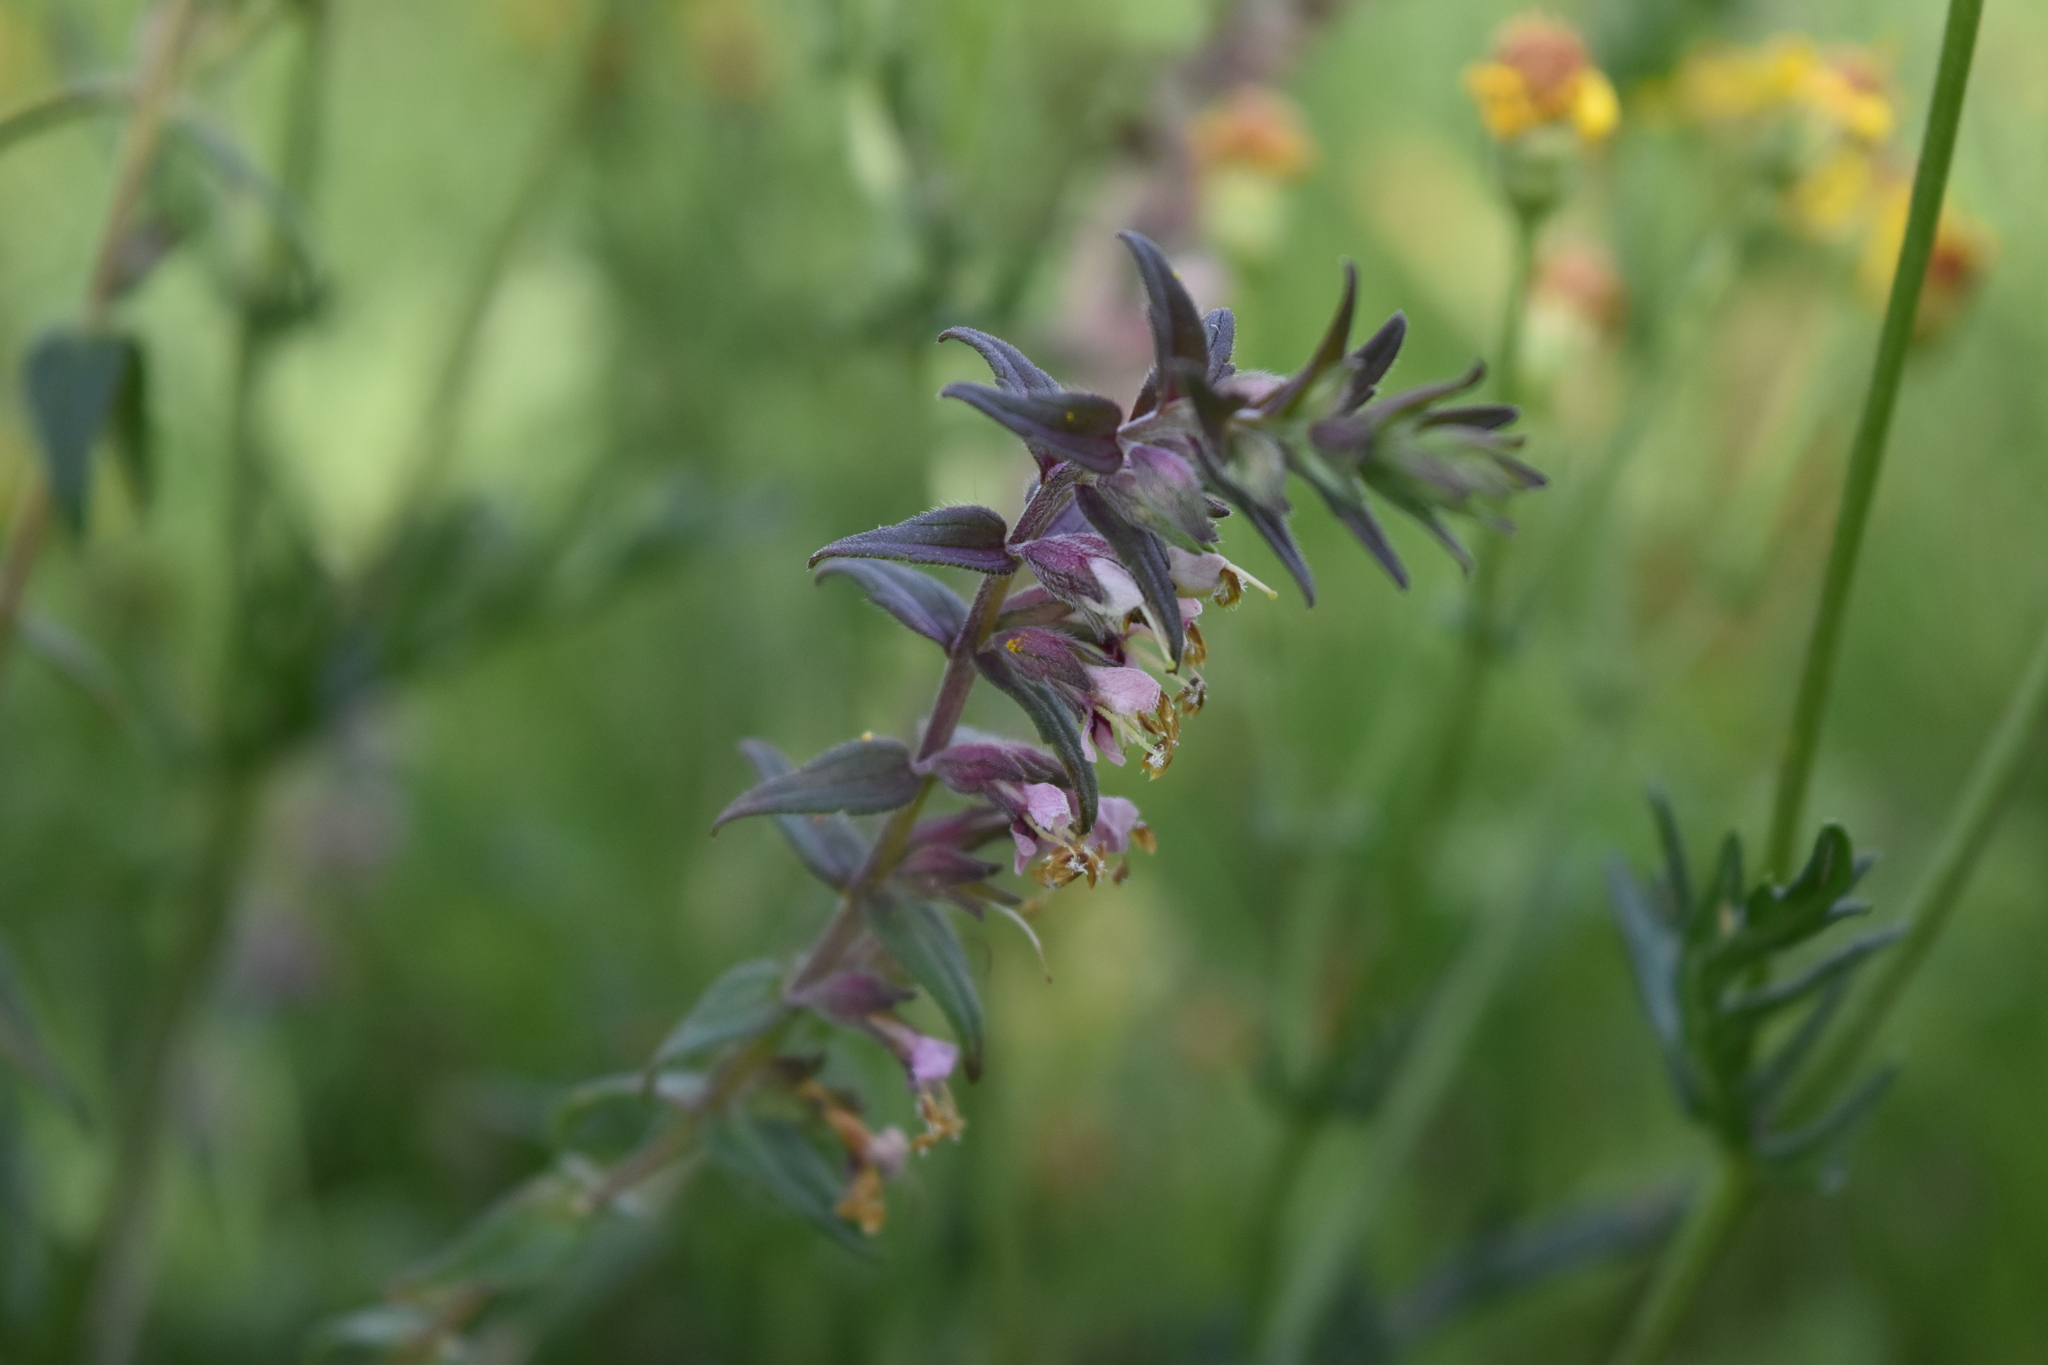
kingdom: Plantae
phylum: Tracheophyta
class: Magnoliopsida
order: Lamiales
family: Orobanchaceae
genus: Odontites
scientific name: Odontites vulgaris
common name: Broomrape
